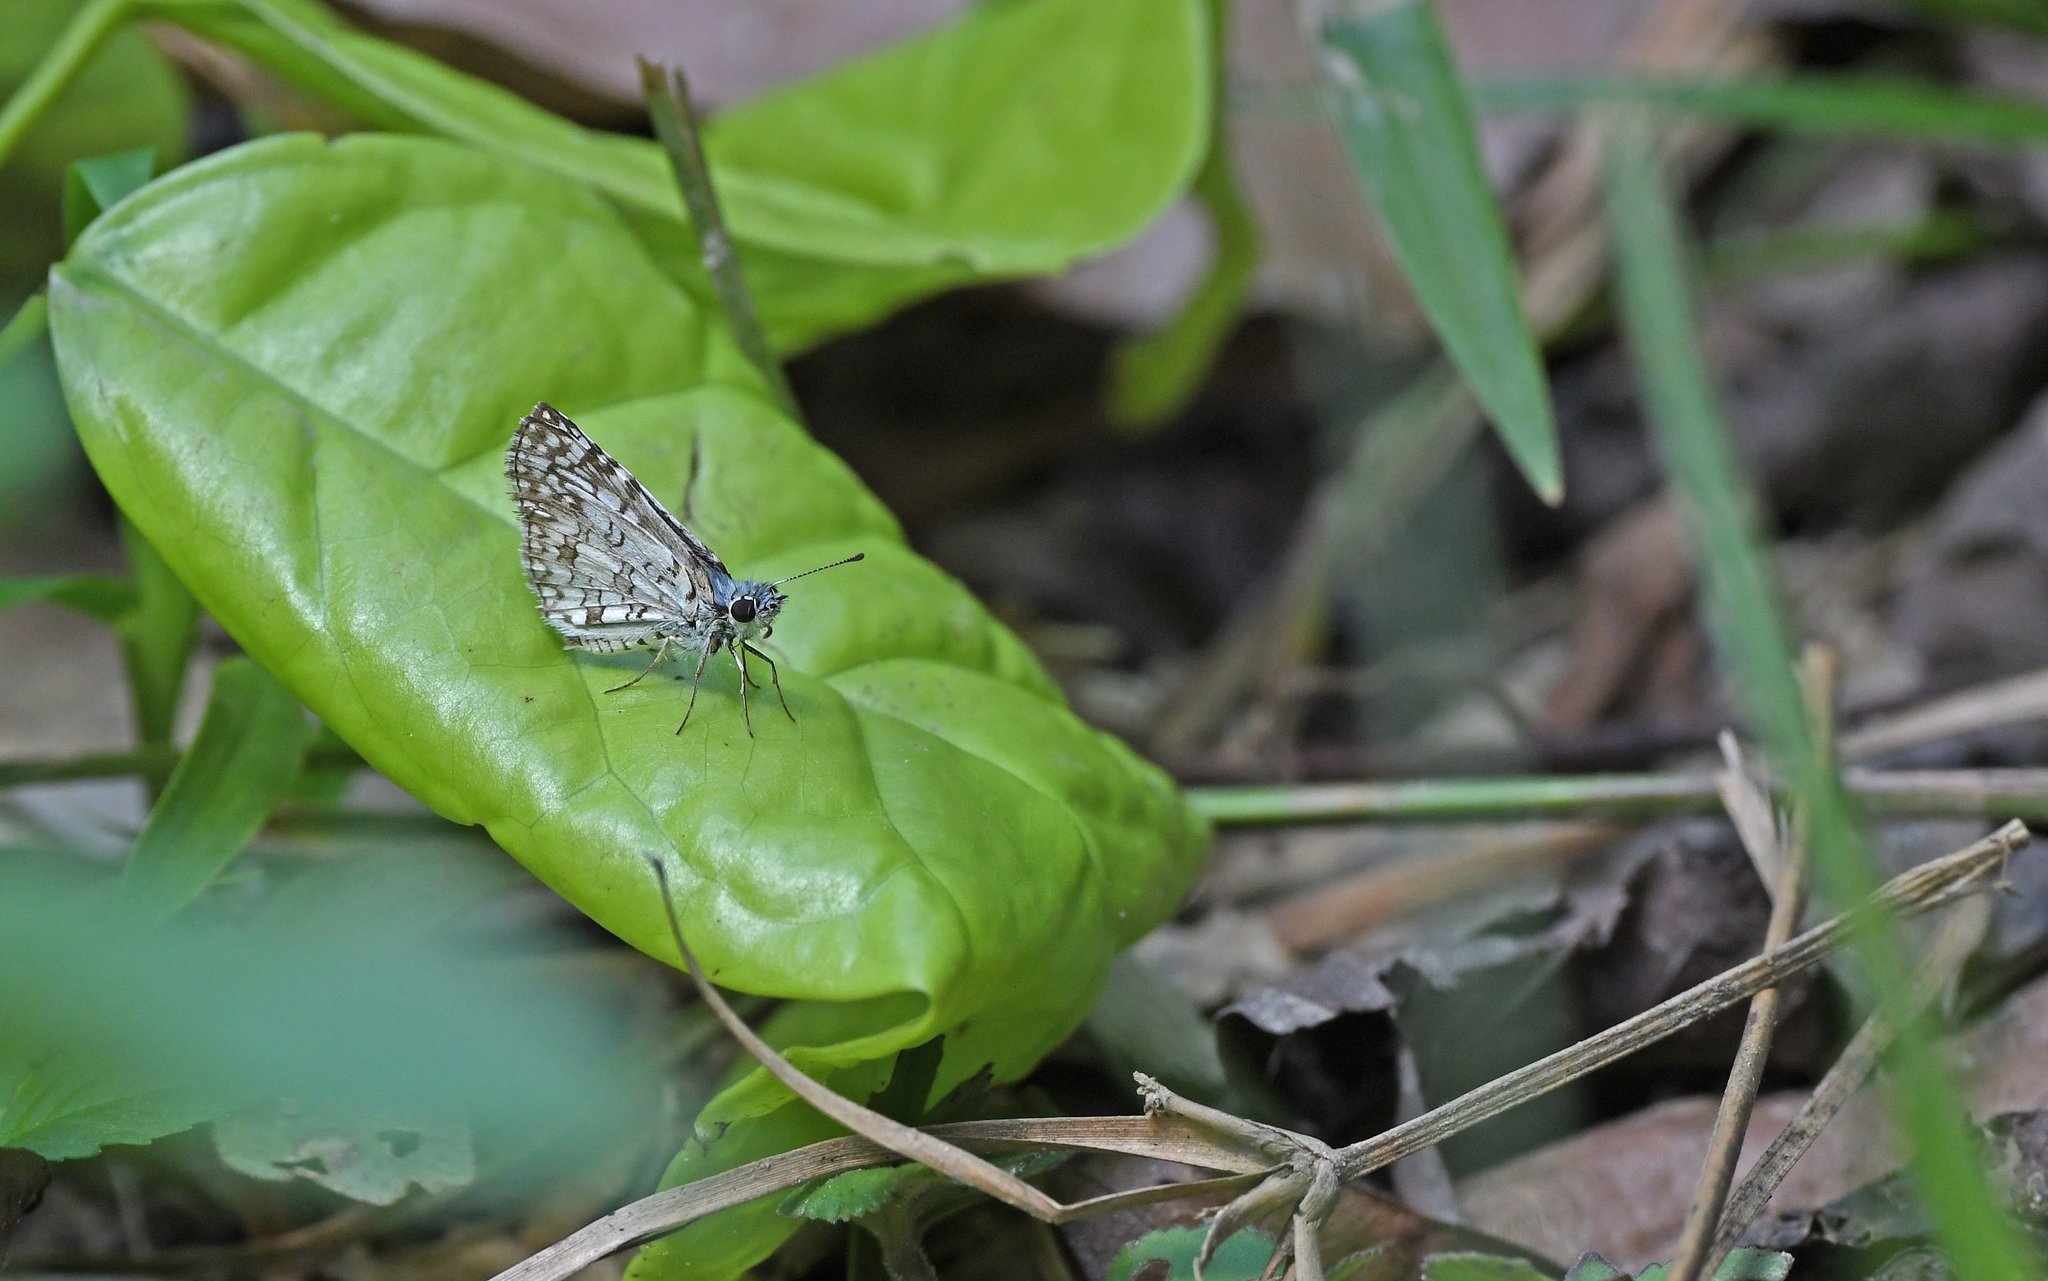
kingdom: Animalia
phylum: Arthropoda
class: Insecta
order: Lepidoptera
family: Hesperiidae
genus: Pyrgus
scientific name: Pyrgus oileus
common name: Tropical checkered-skipper
